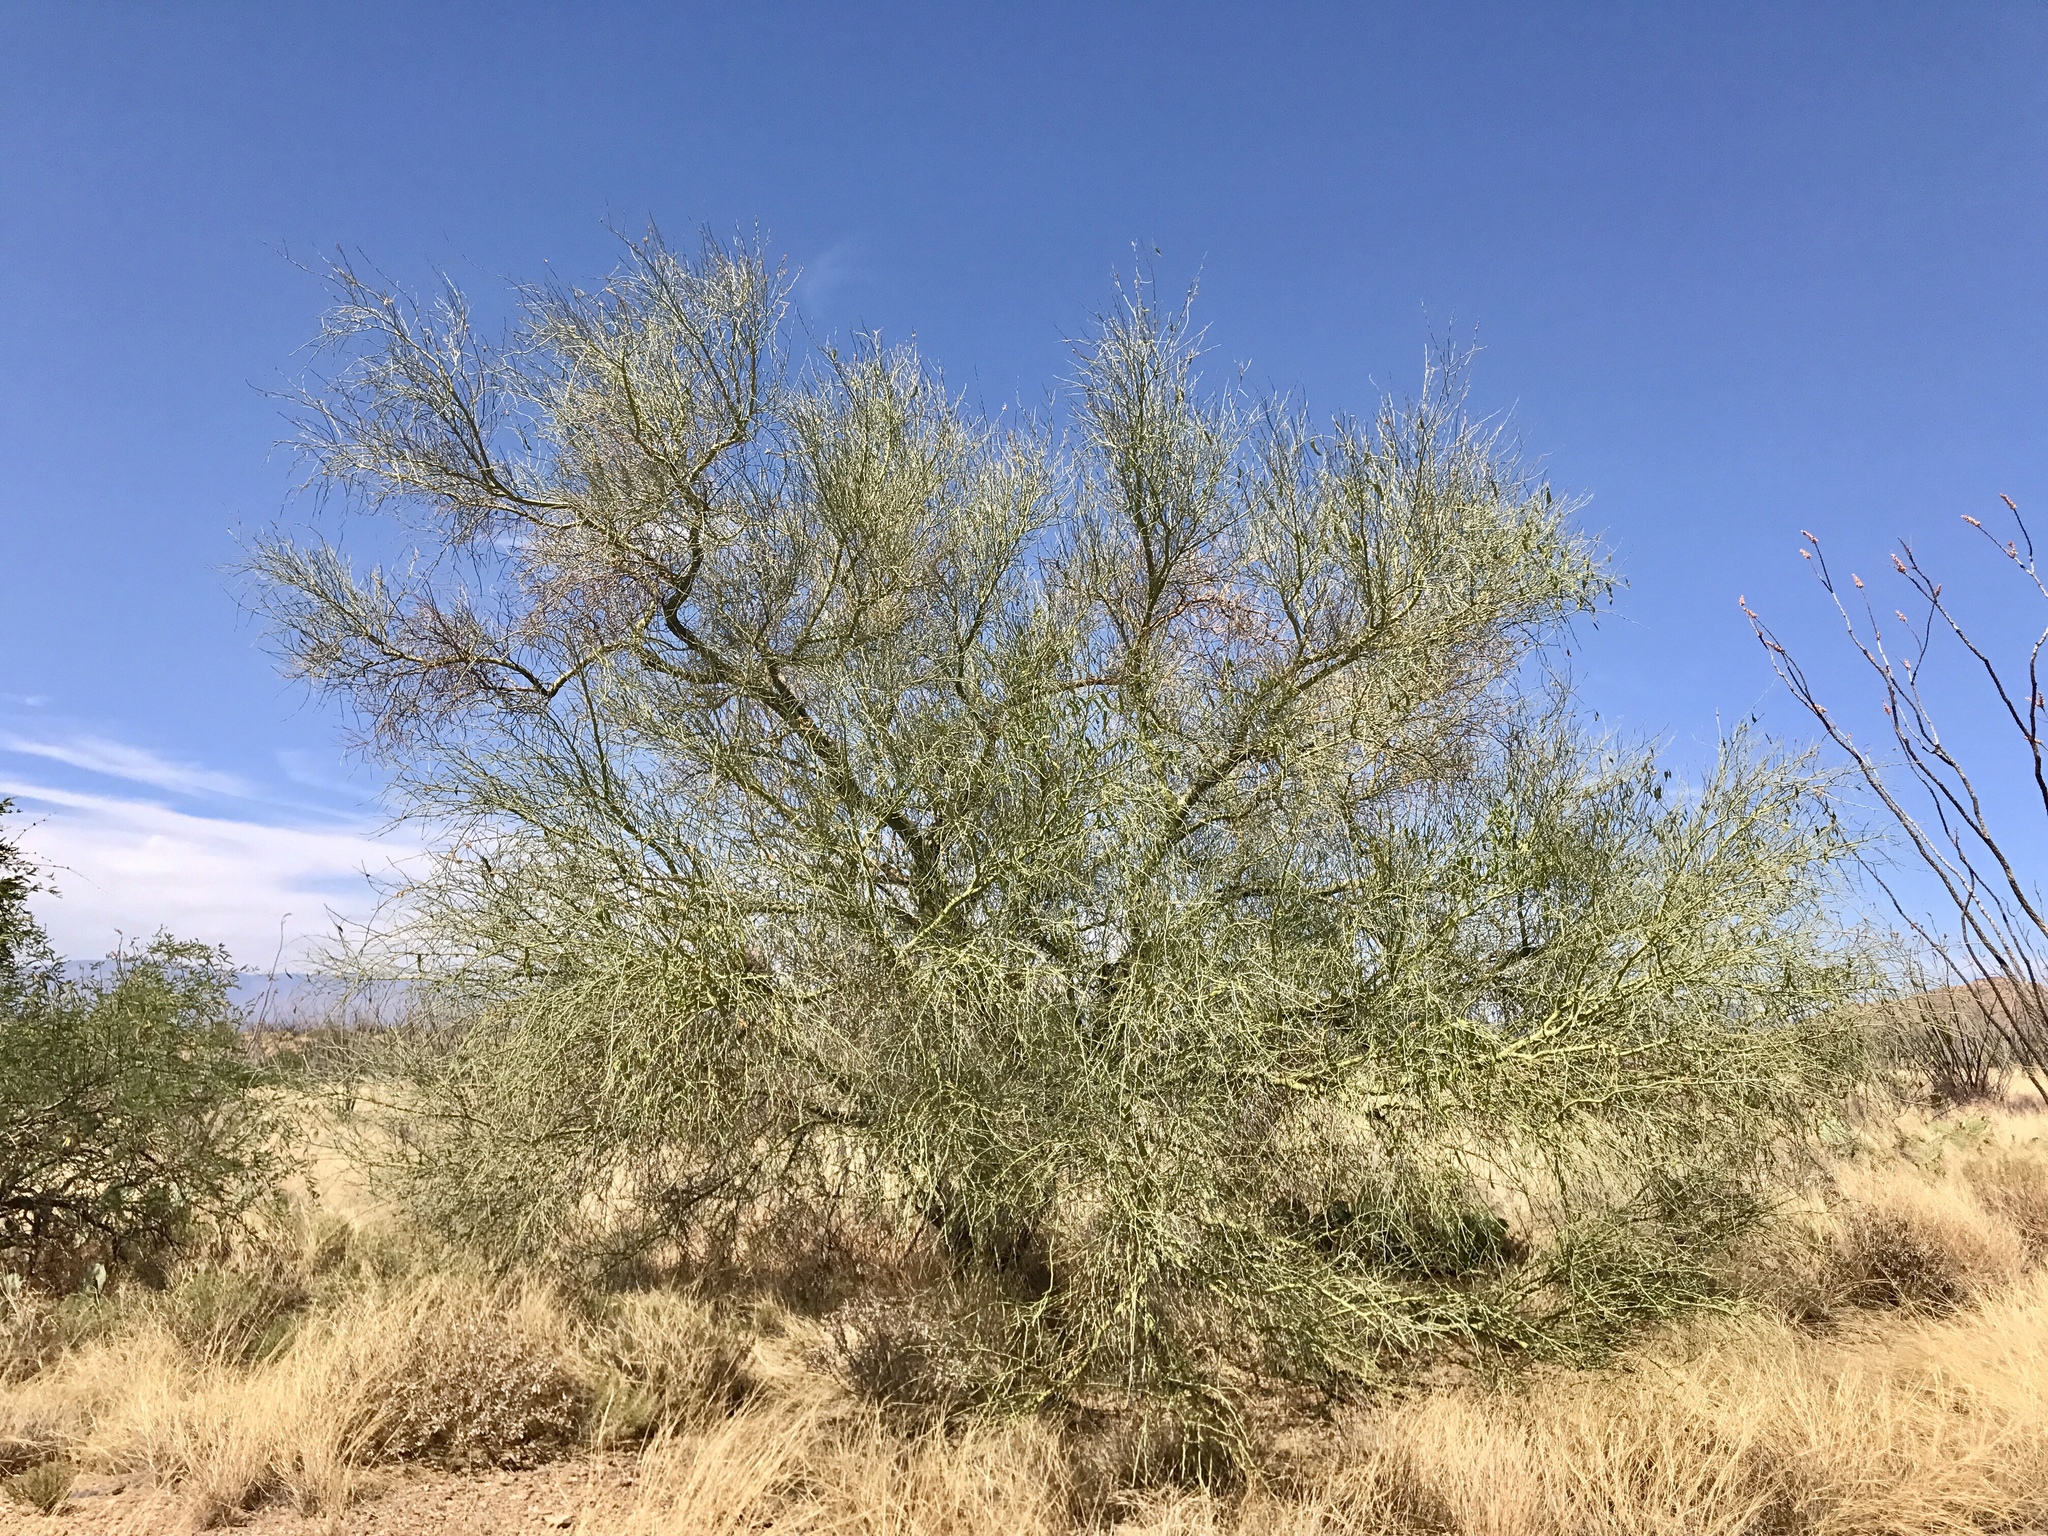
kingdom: Plantae
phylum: Tracheophyta
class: Magnoliopsida
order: Fabales
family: Fabaceae
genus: Parkinsonia
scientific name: Parkinsonia florida
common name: Blue paloverde
